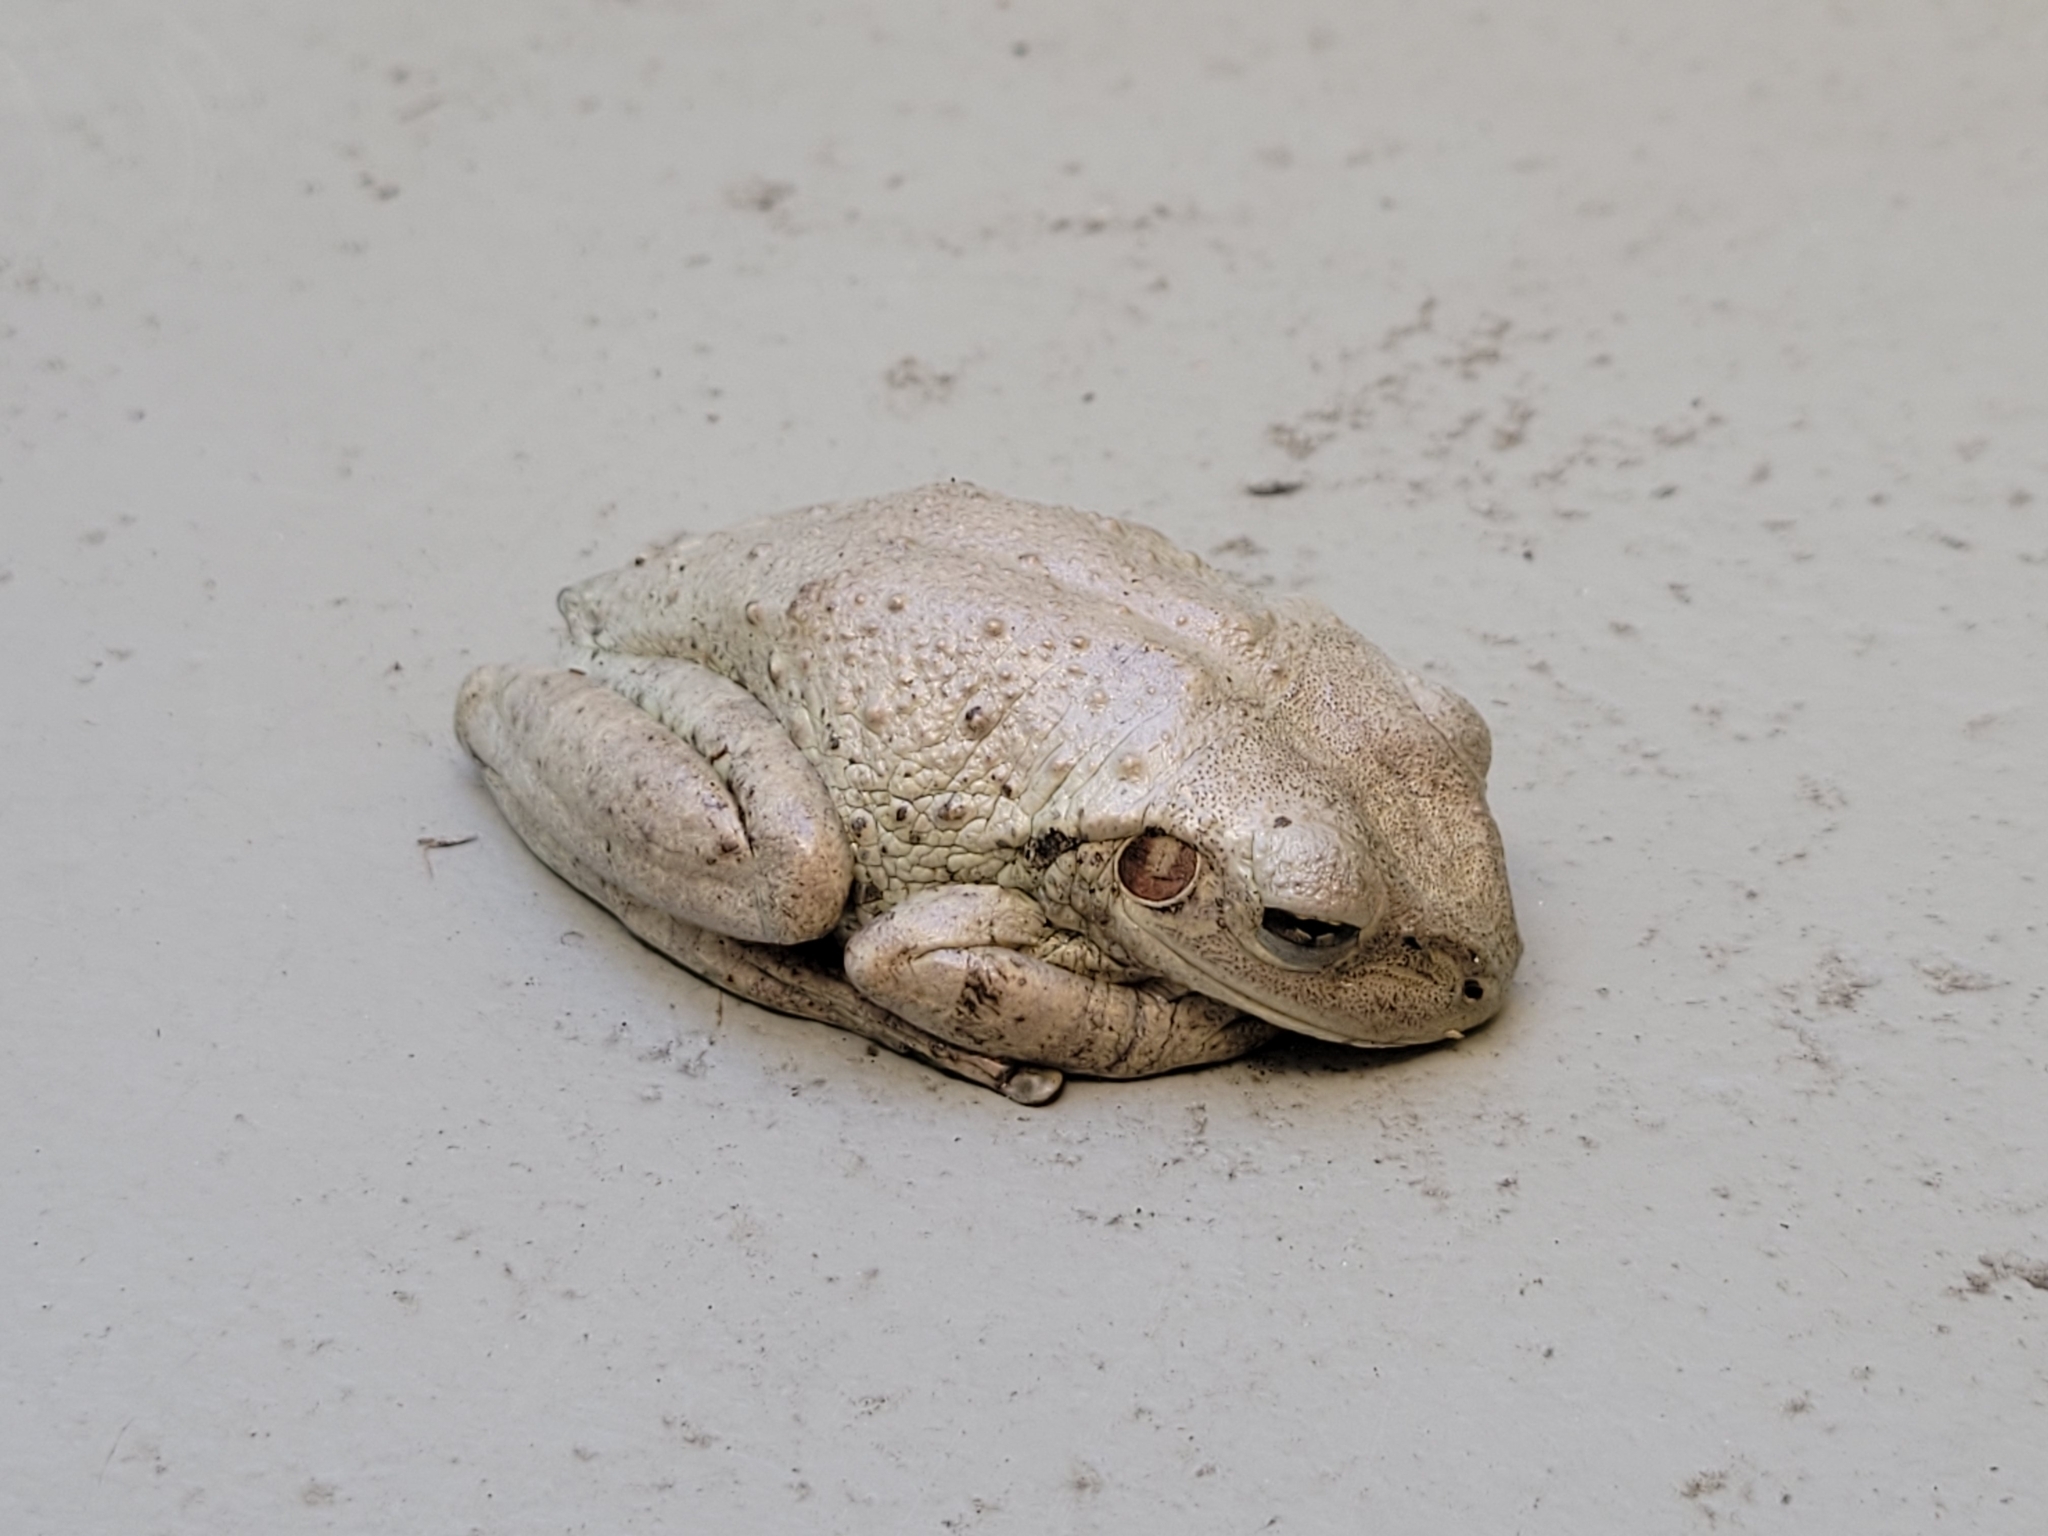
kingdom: Animalia
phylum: Chordata
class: Amphibia
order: Anura
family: Hylidae
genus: Osteopilus
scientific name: Osteopilus septentrionalis
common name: Cuban treefrog
